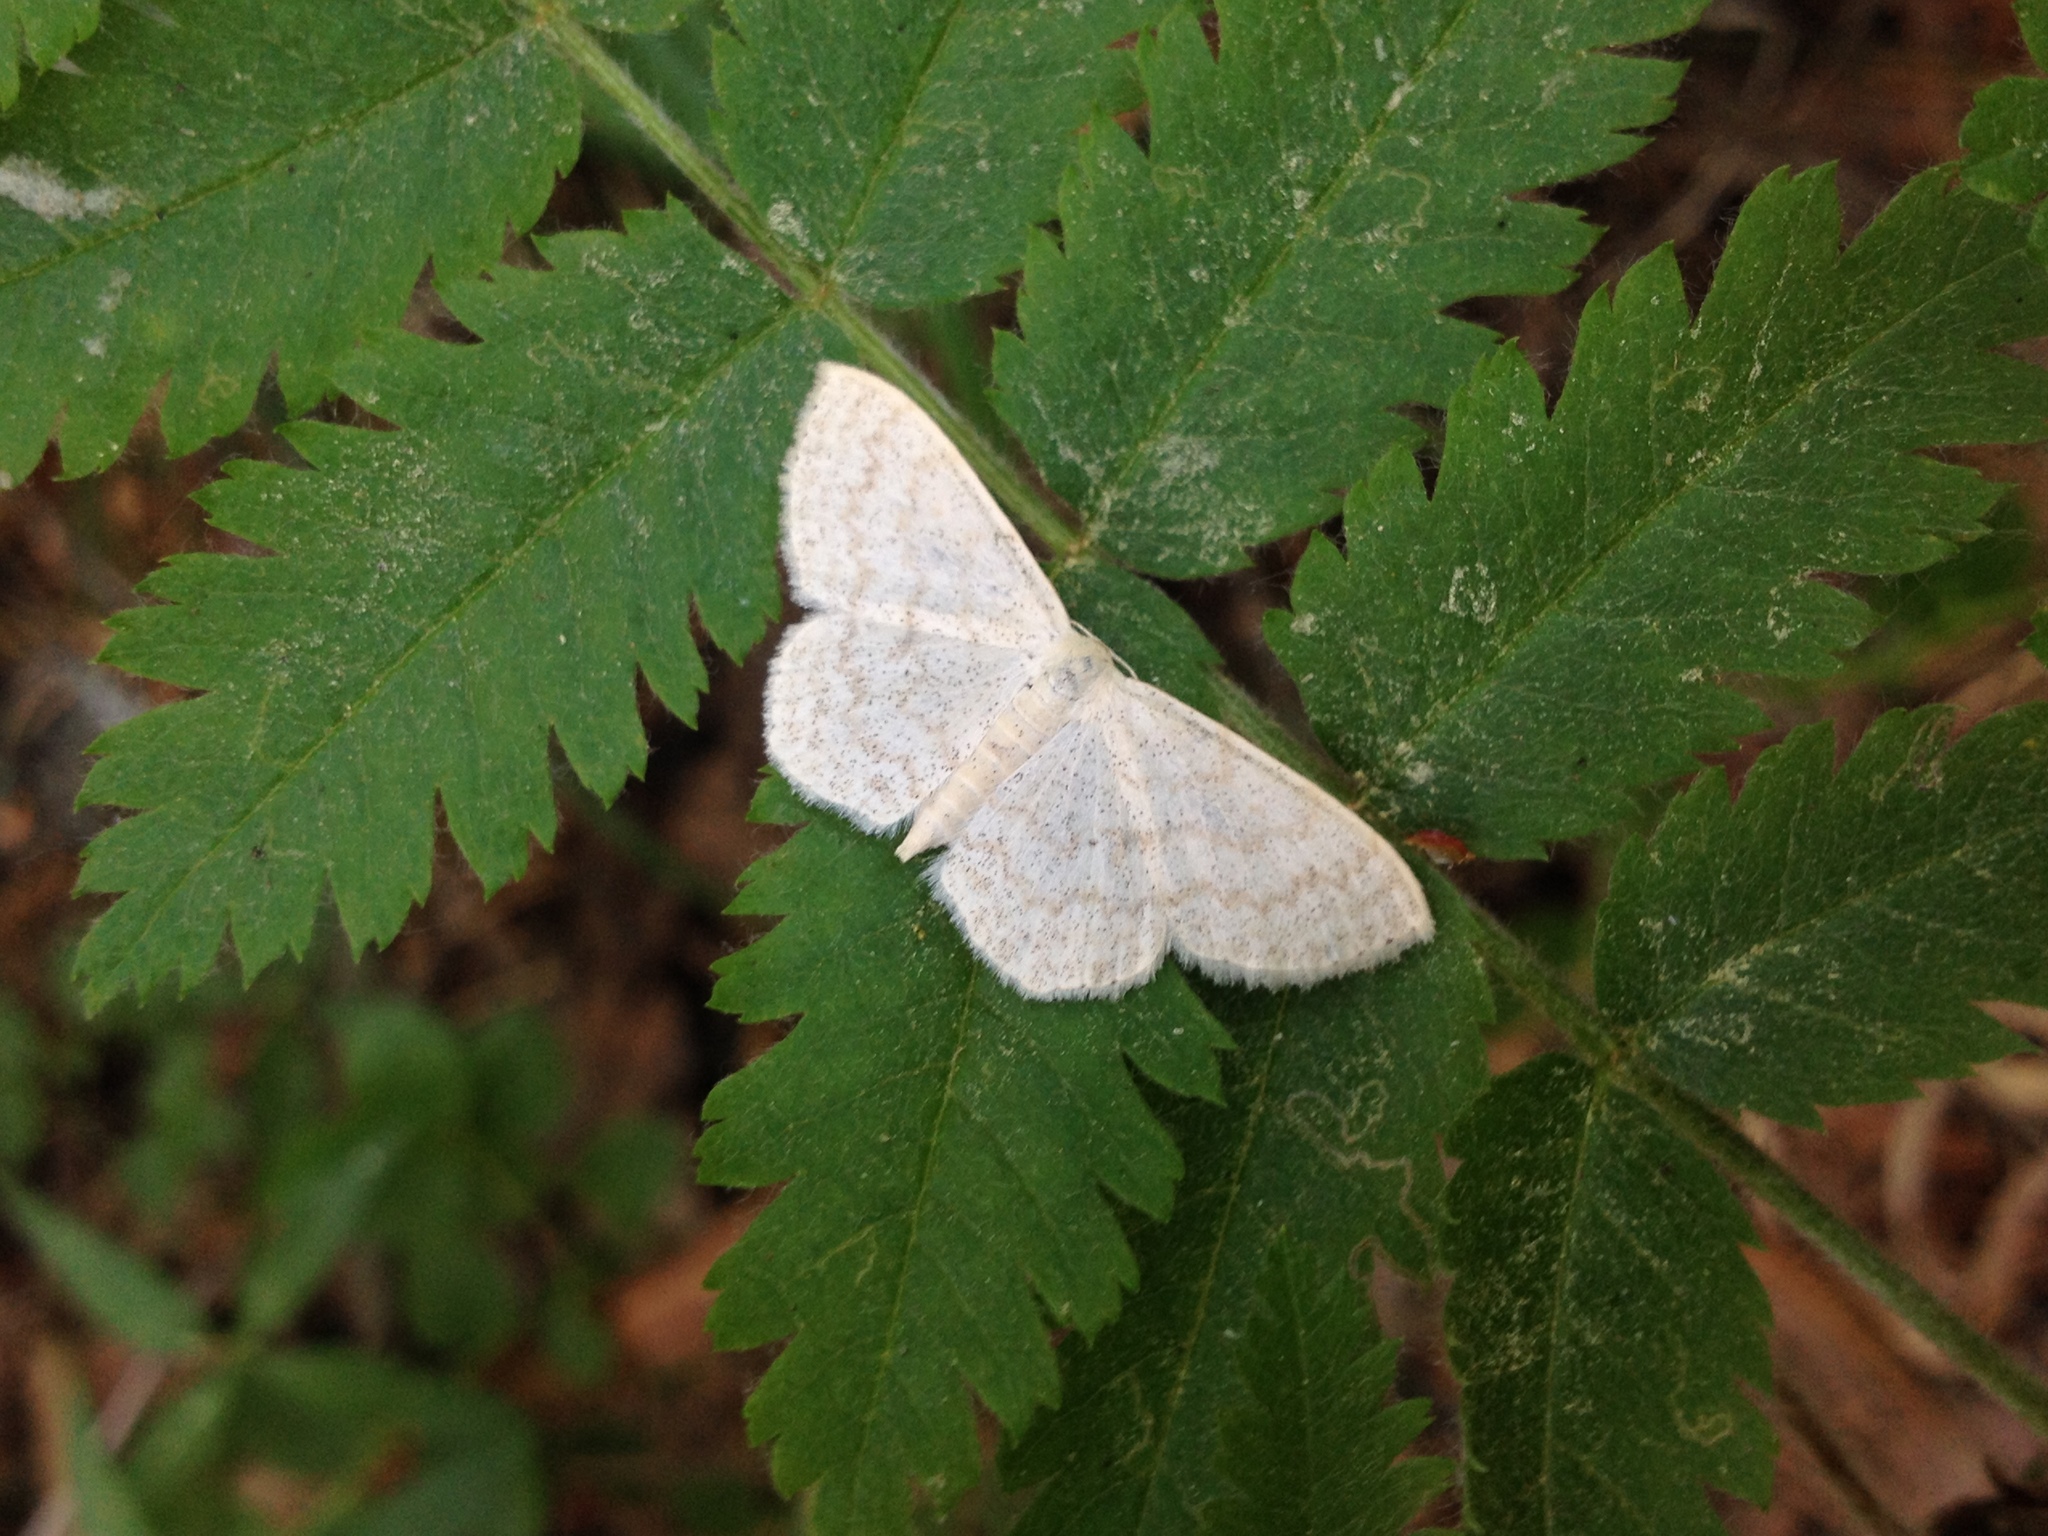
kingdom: Animalia
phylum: Arthropoda
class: Insecta
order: Lepidoptera
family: Geometridae
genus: Scopula
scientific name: Scopula floslactata
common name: Cream wave
